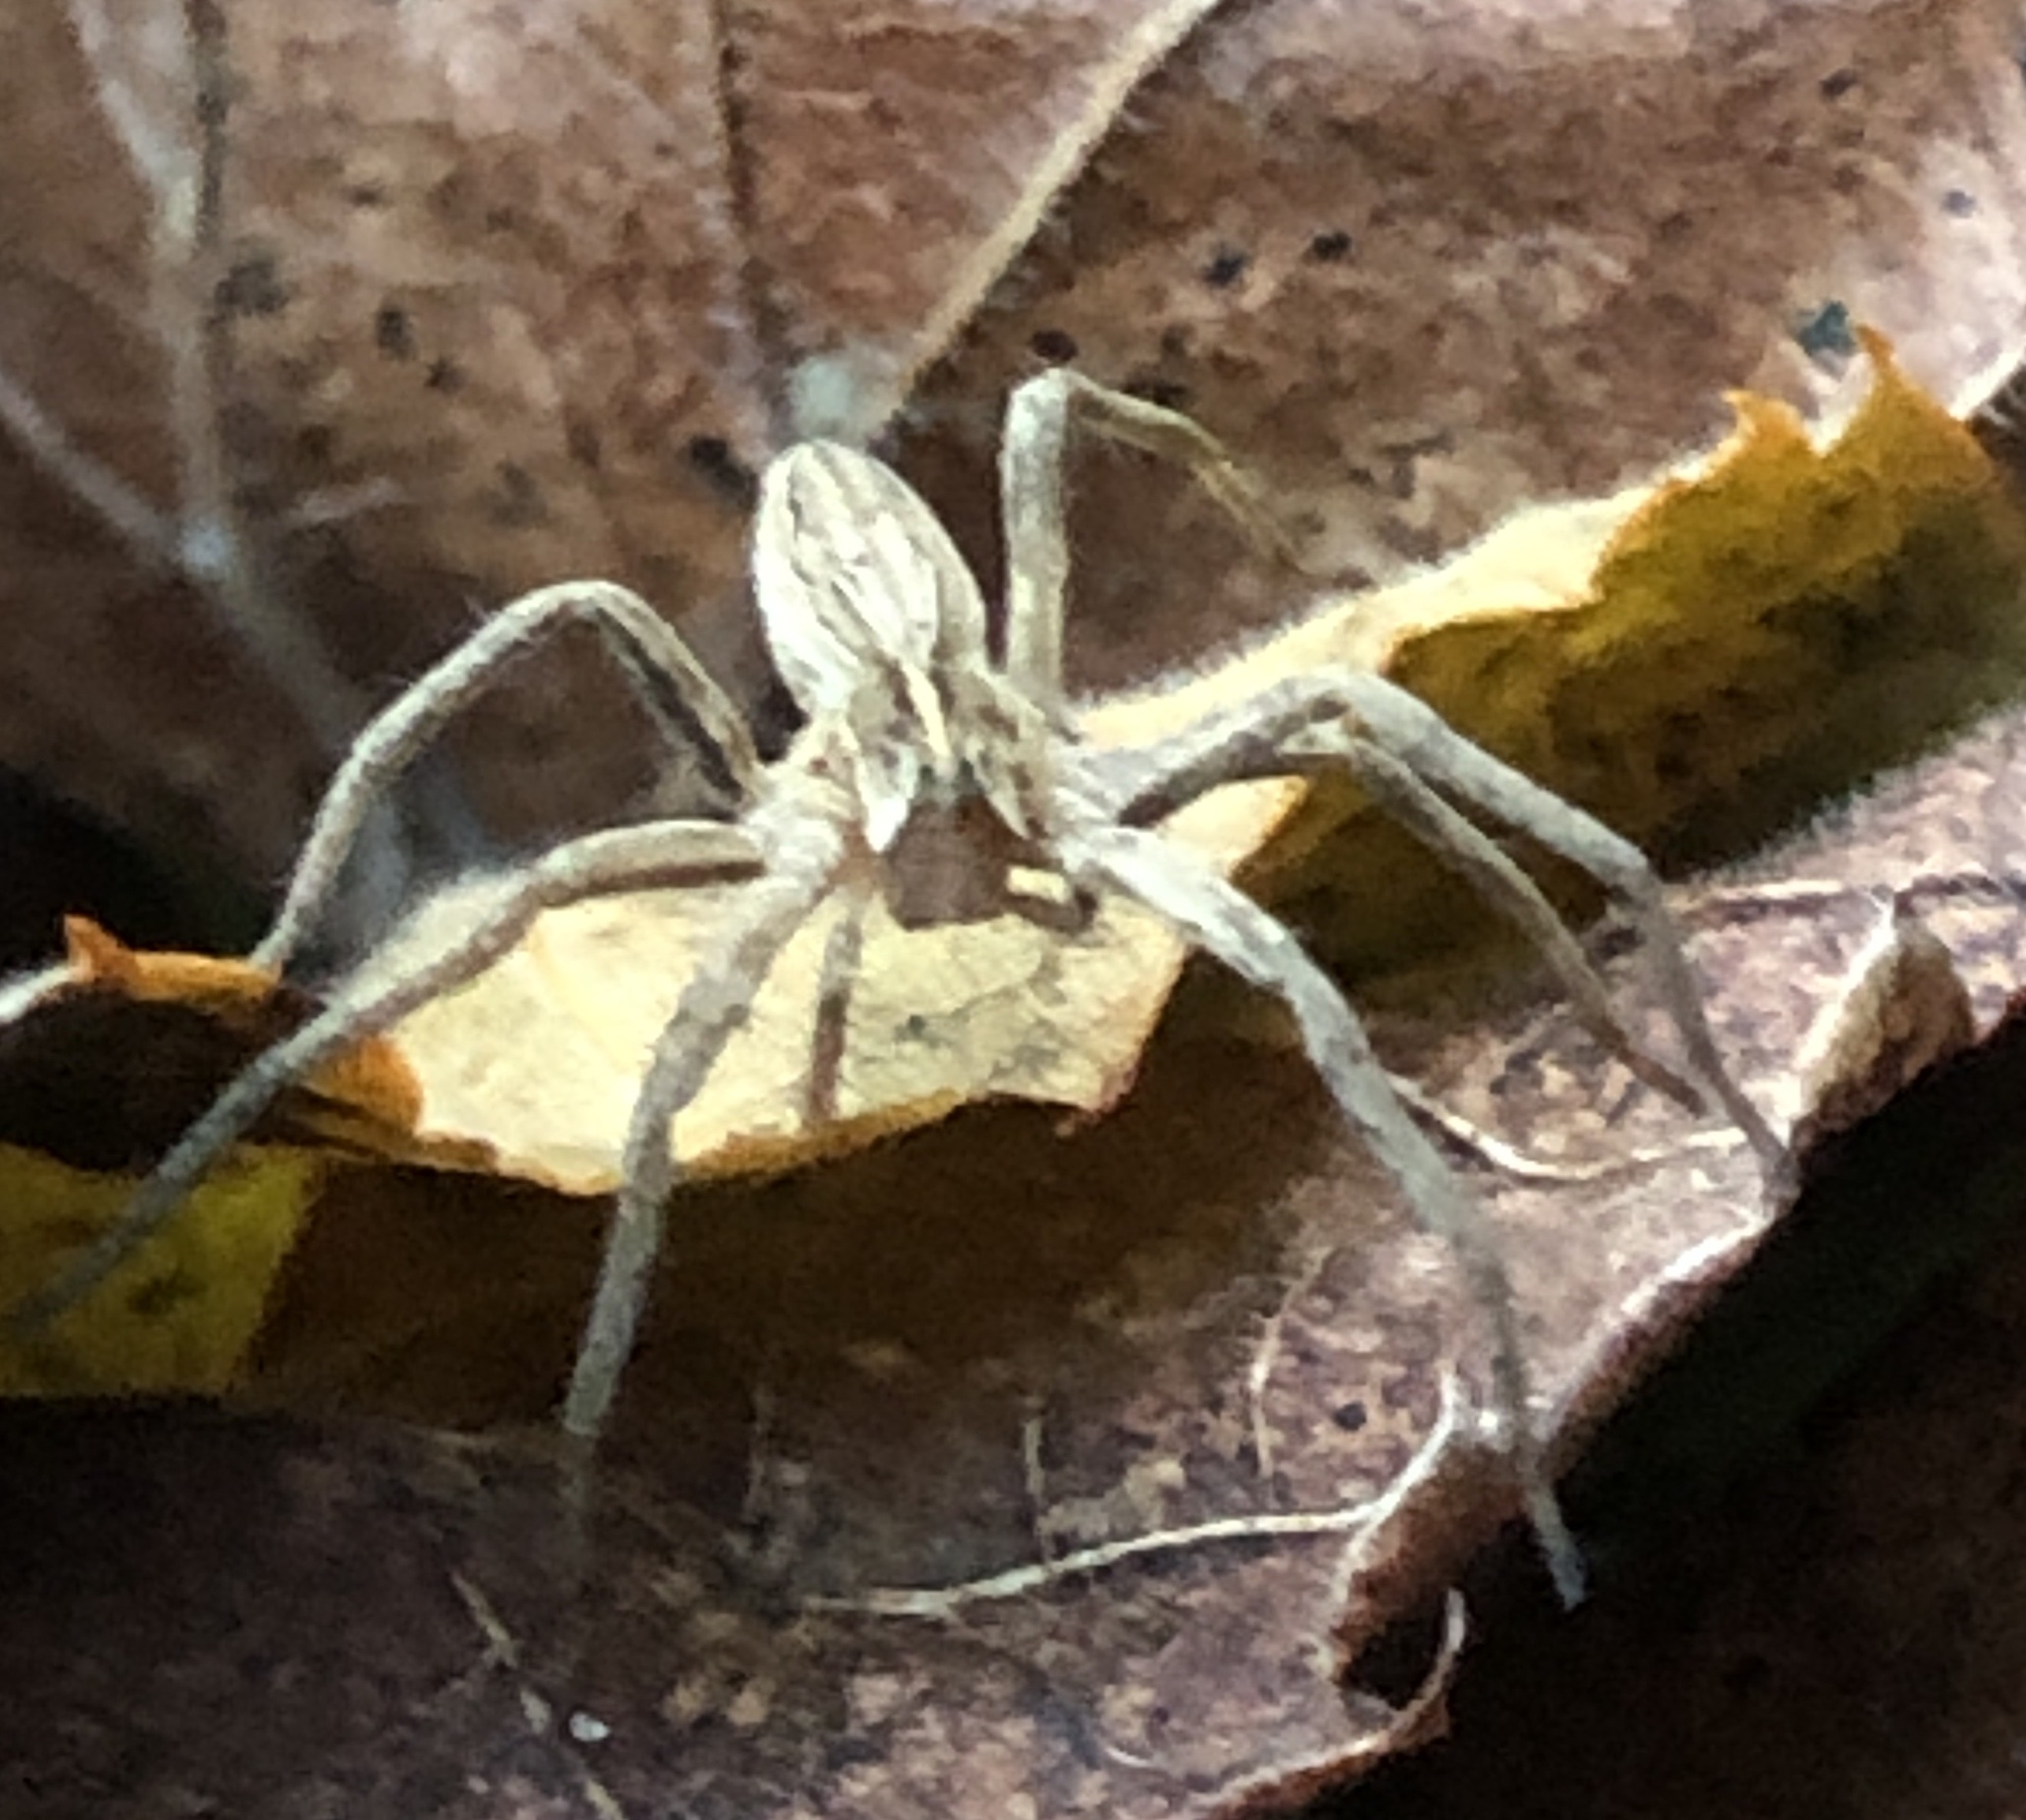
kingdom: Animalia
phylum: Arthropoda
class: Arachnida
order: Araneae
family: Pisauridae
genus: Pisaura
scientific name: Pisaura mirabilis
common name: Tent spider
